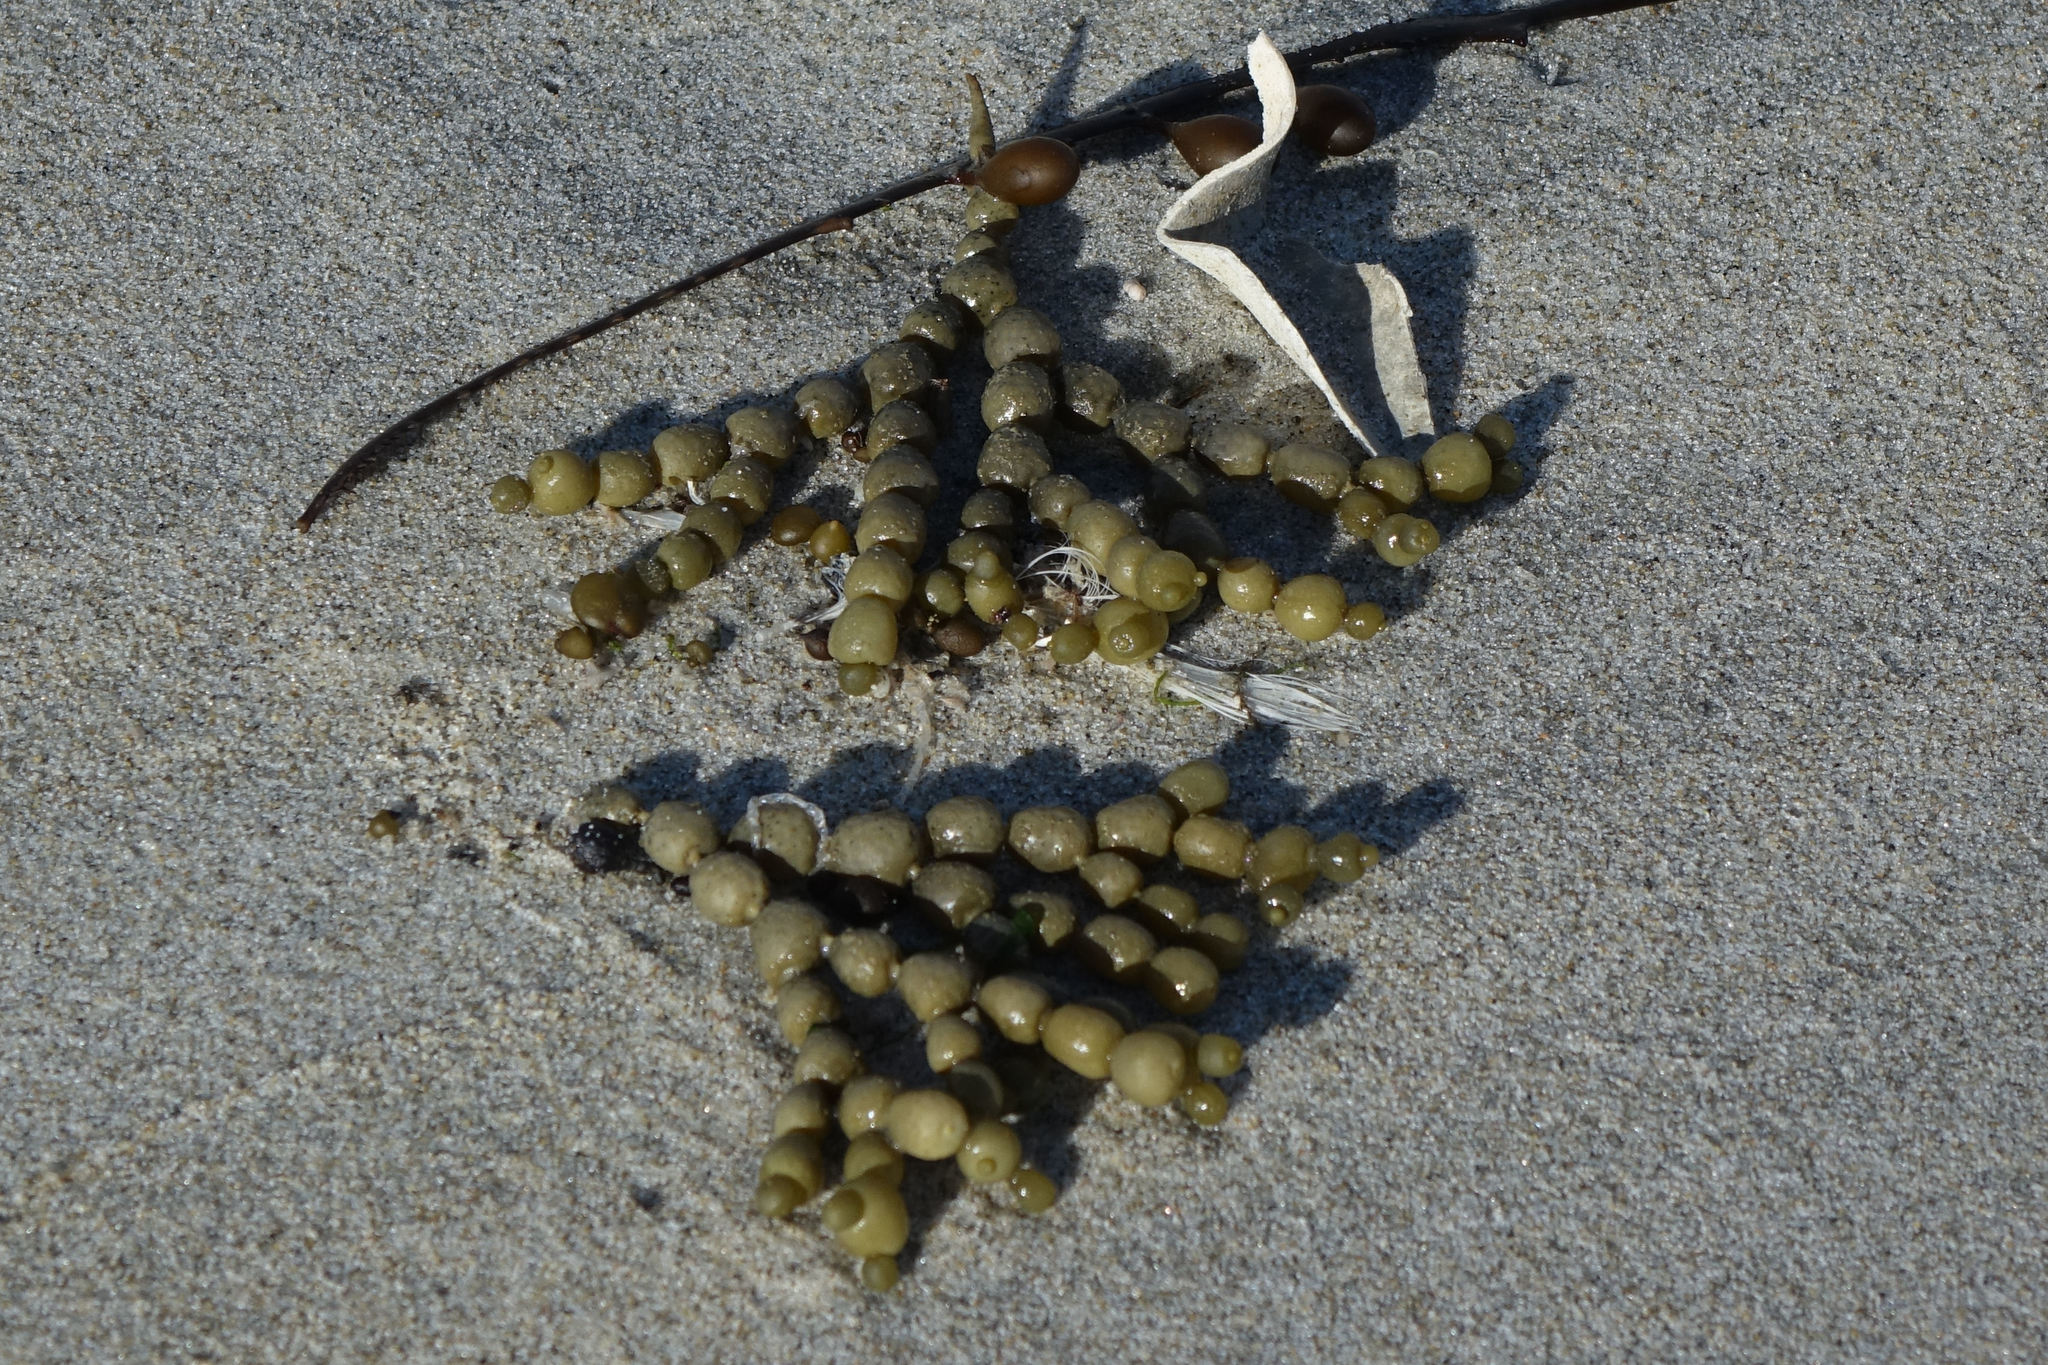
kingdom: Chromista
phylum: Ochrophyta
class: Phaeophyceae
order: Fucales
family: Hormosiraceae
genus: Hormosira
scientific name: Hormosira banksii
